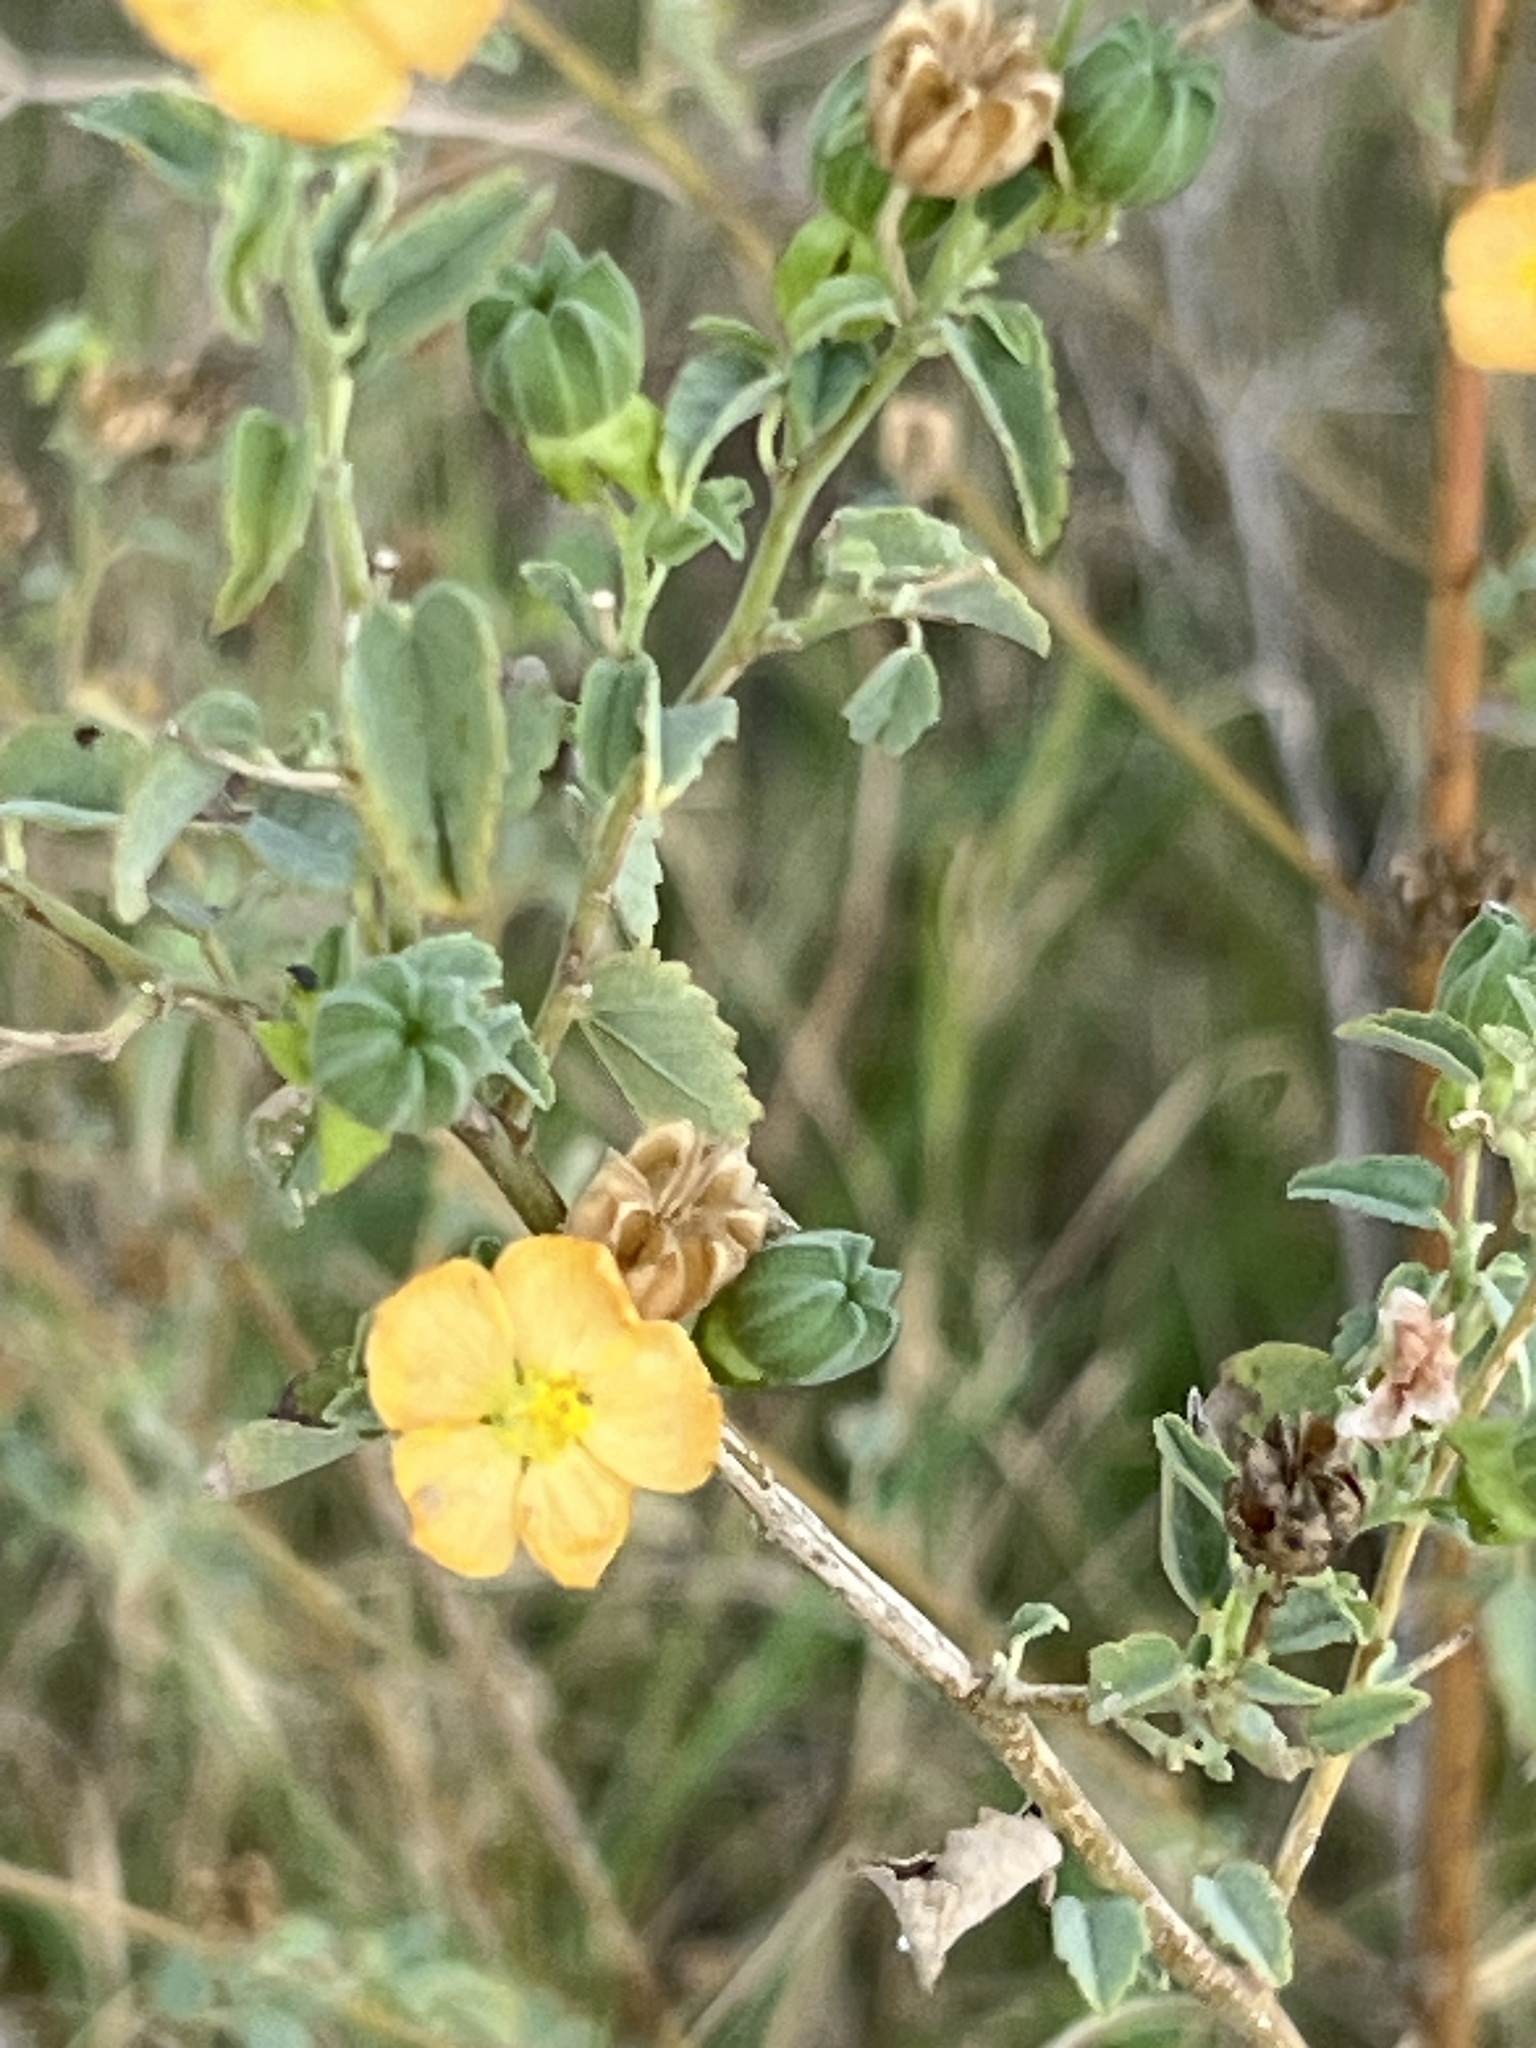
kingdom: Plantae
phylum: Tracheophyta
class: Magnoliopsida
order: Malvales
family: Malvaceae
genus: Abutilon
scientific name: Abutilon fruticosum
